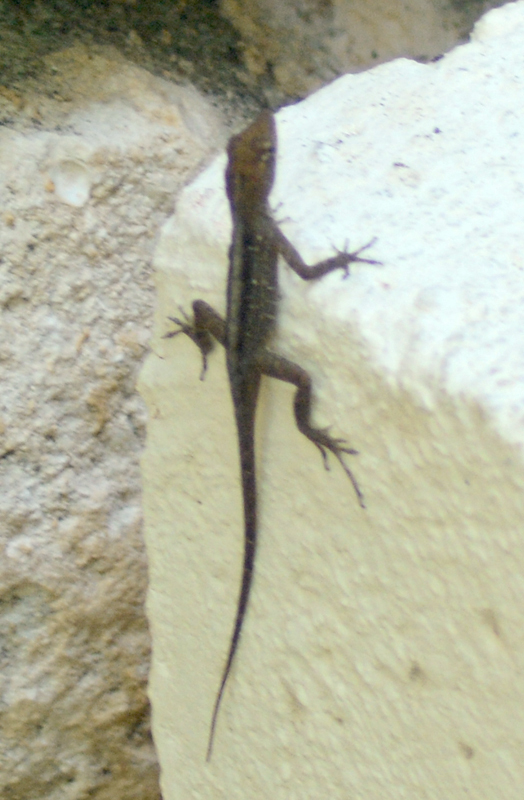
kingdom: Animalia
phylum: Chordata
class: Squamata
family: Dactyloidae
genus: Anolis
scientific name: Anolis sagrei
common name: Brown anole
